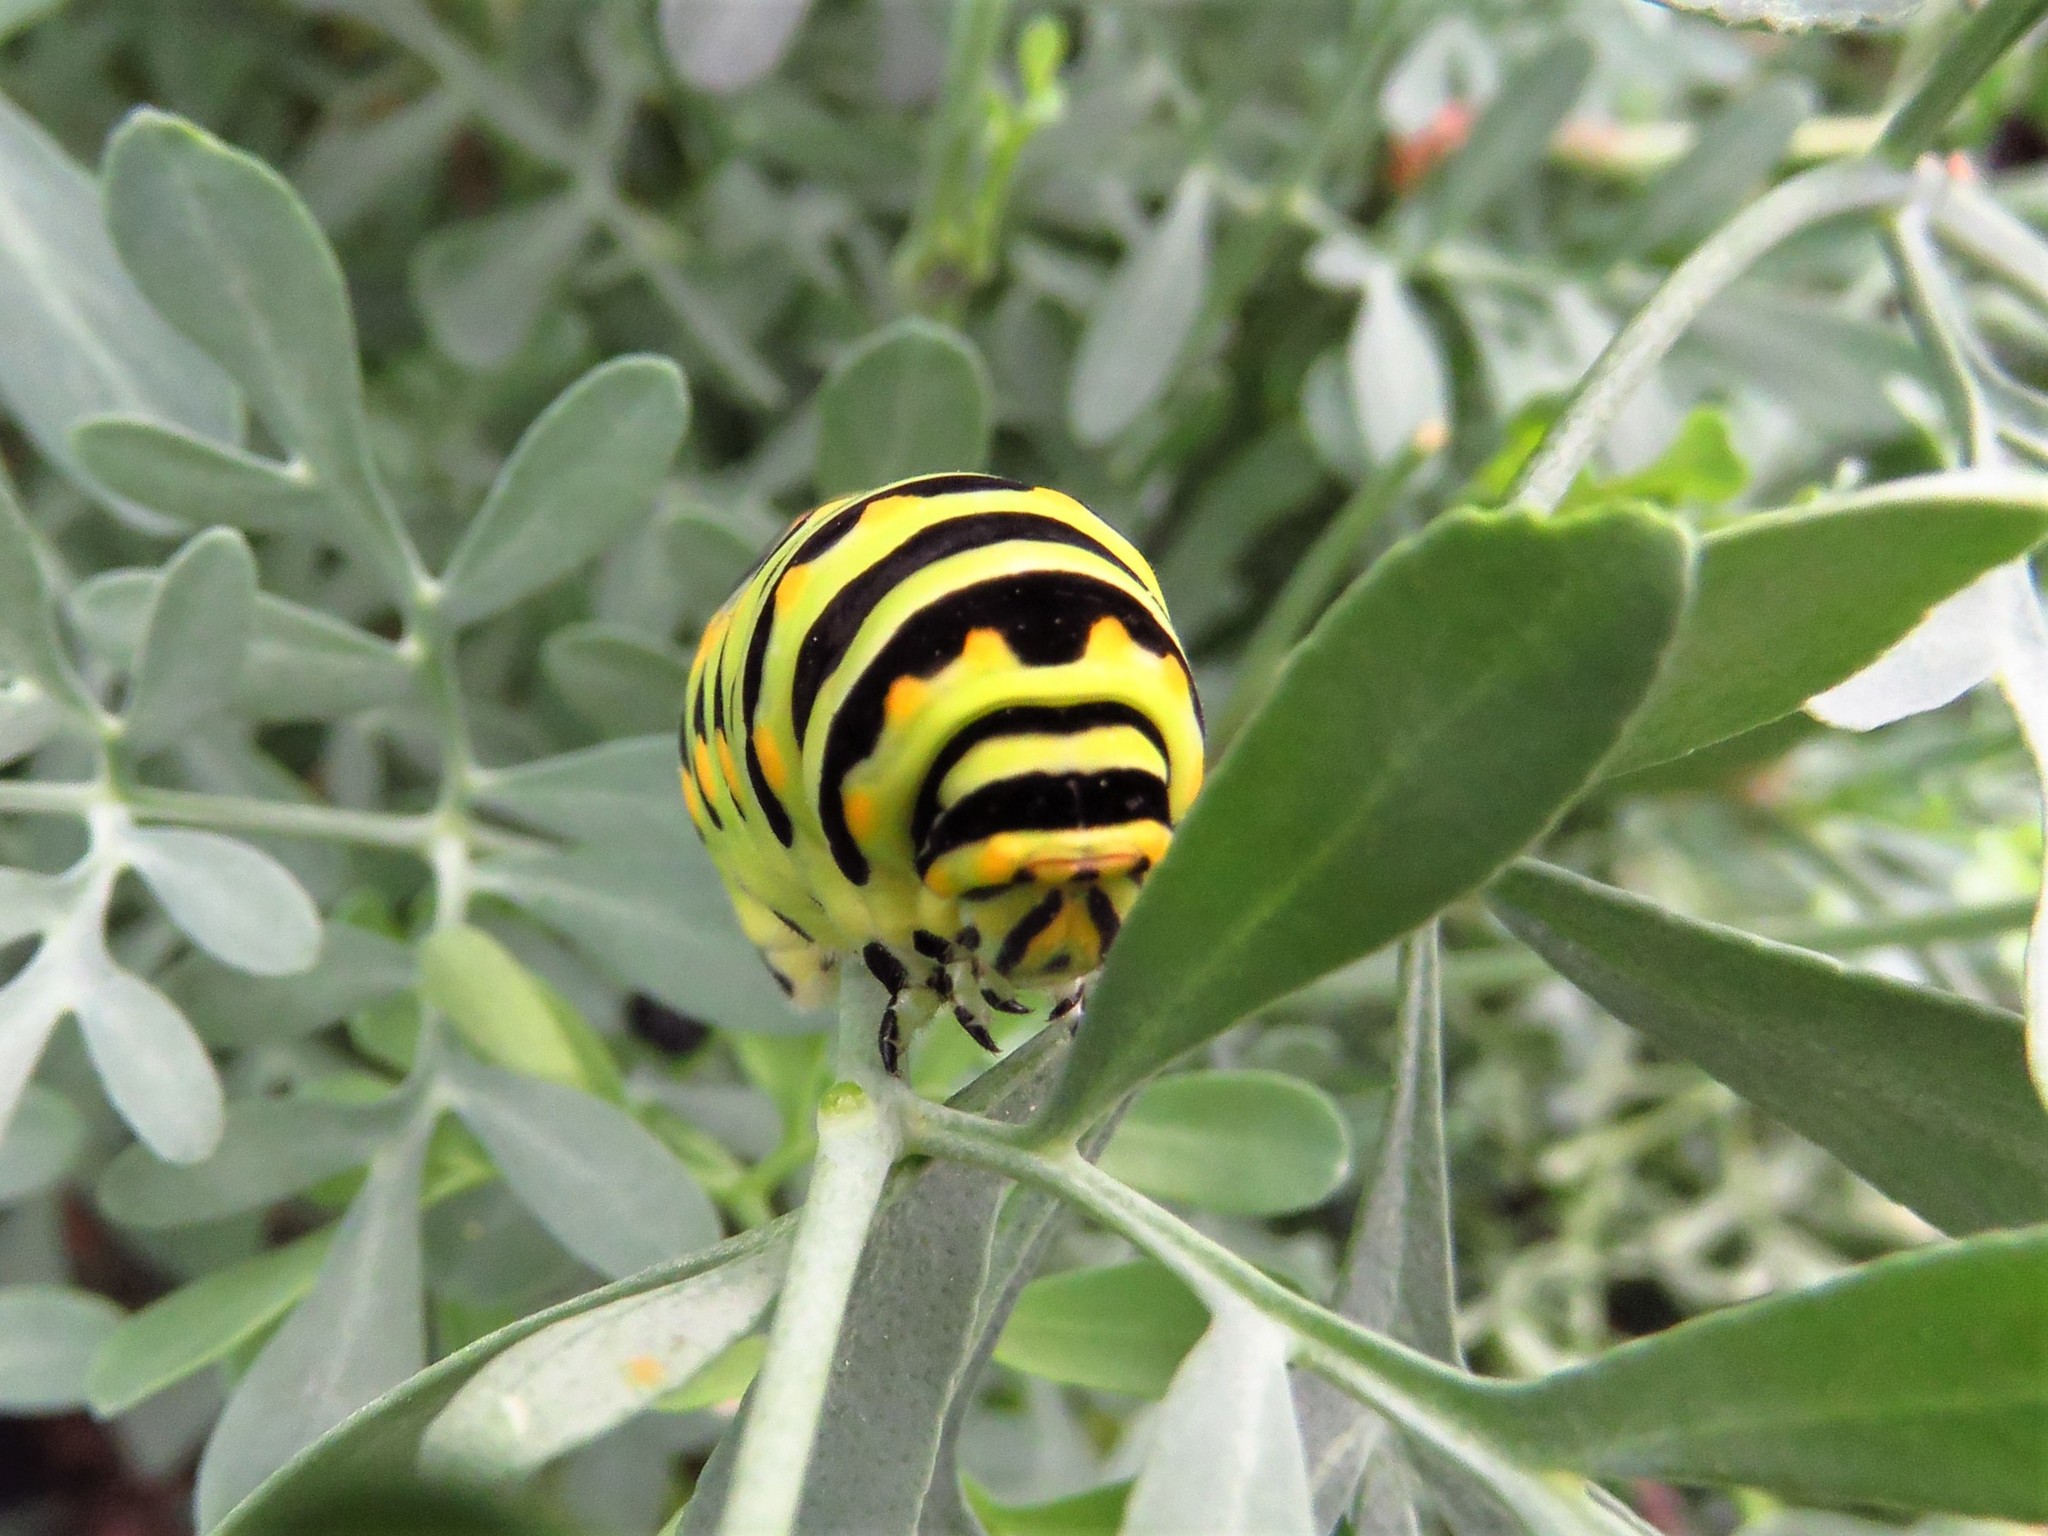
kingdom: Animalia
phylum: Arthropoda
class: Insecta
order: Lepidoptera
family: Papilionidae
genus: Papilio
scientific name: Papilio polyxenes
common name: Black swallowtail
